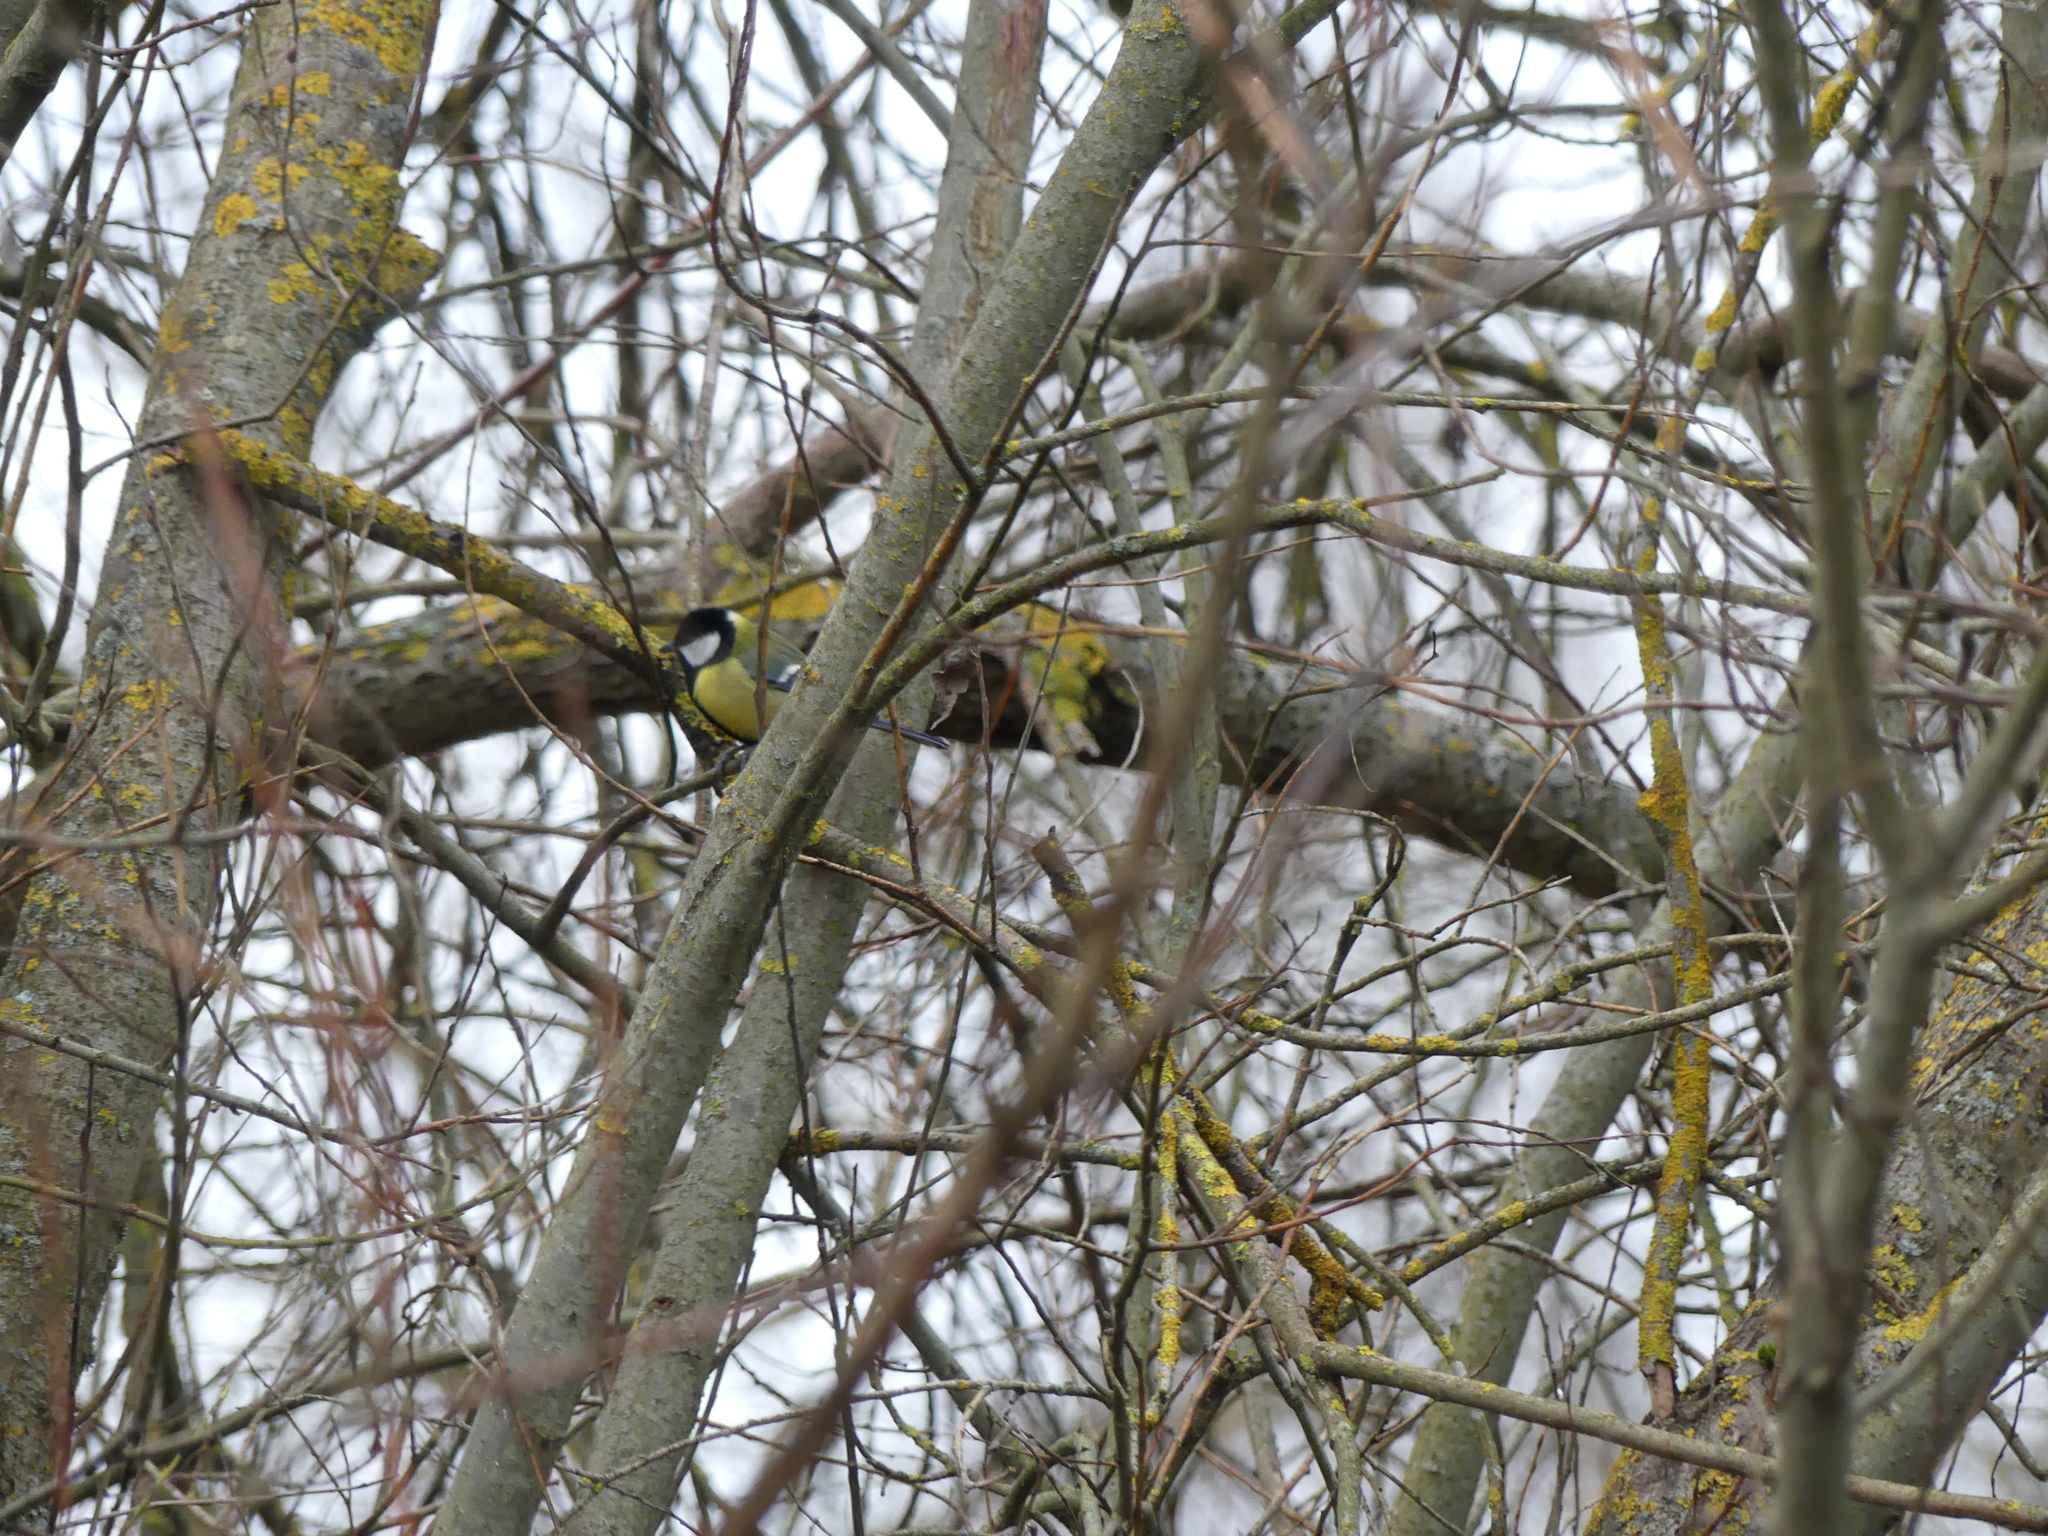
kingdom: Animalia
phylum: Chordata
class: Aves
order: Passeriformes
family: Paridae
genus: Parus
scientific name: Parus major
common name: Great tit
